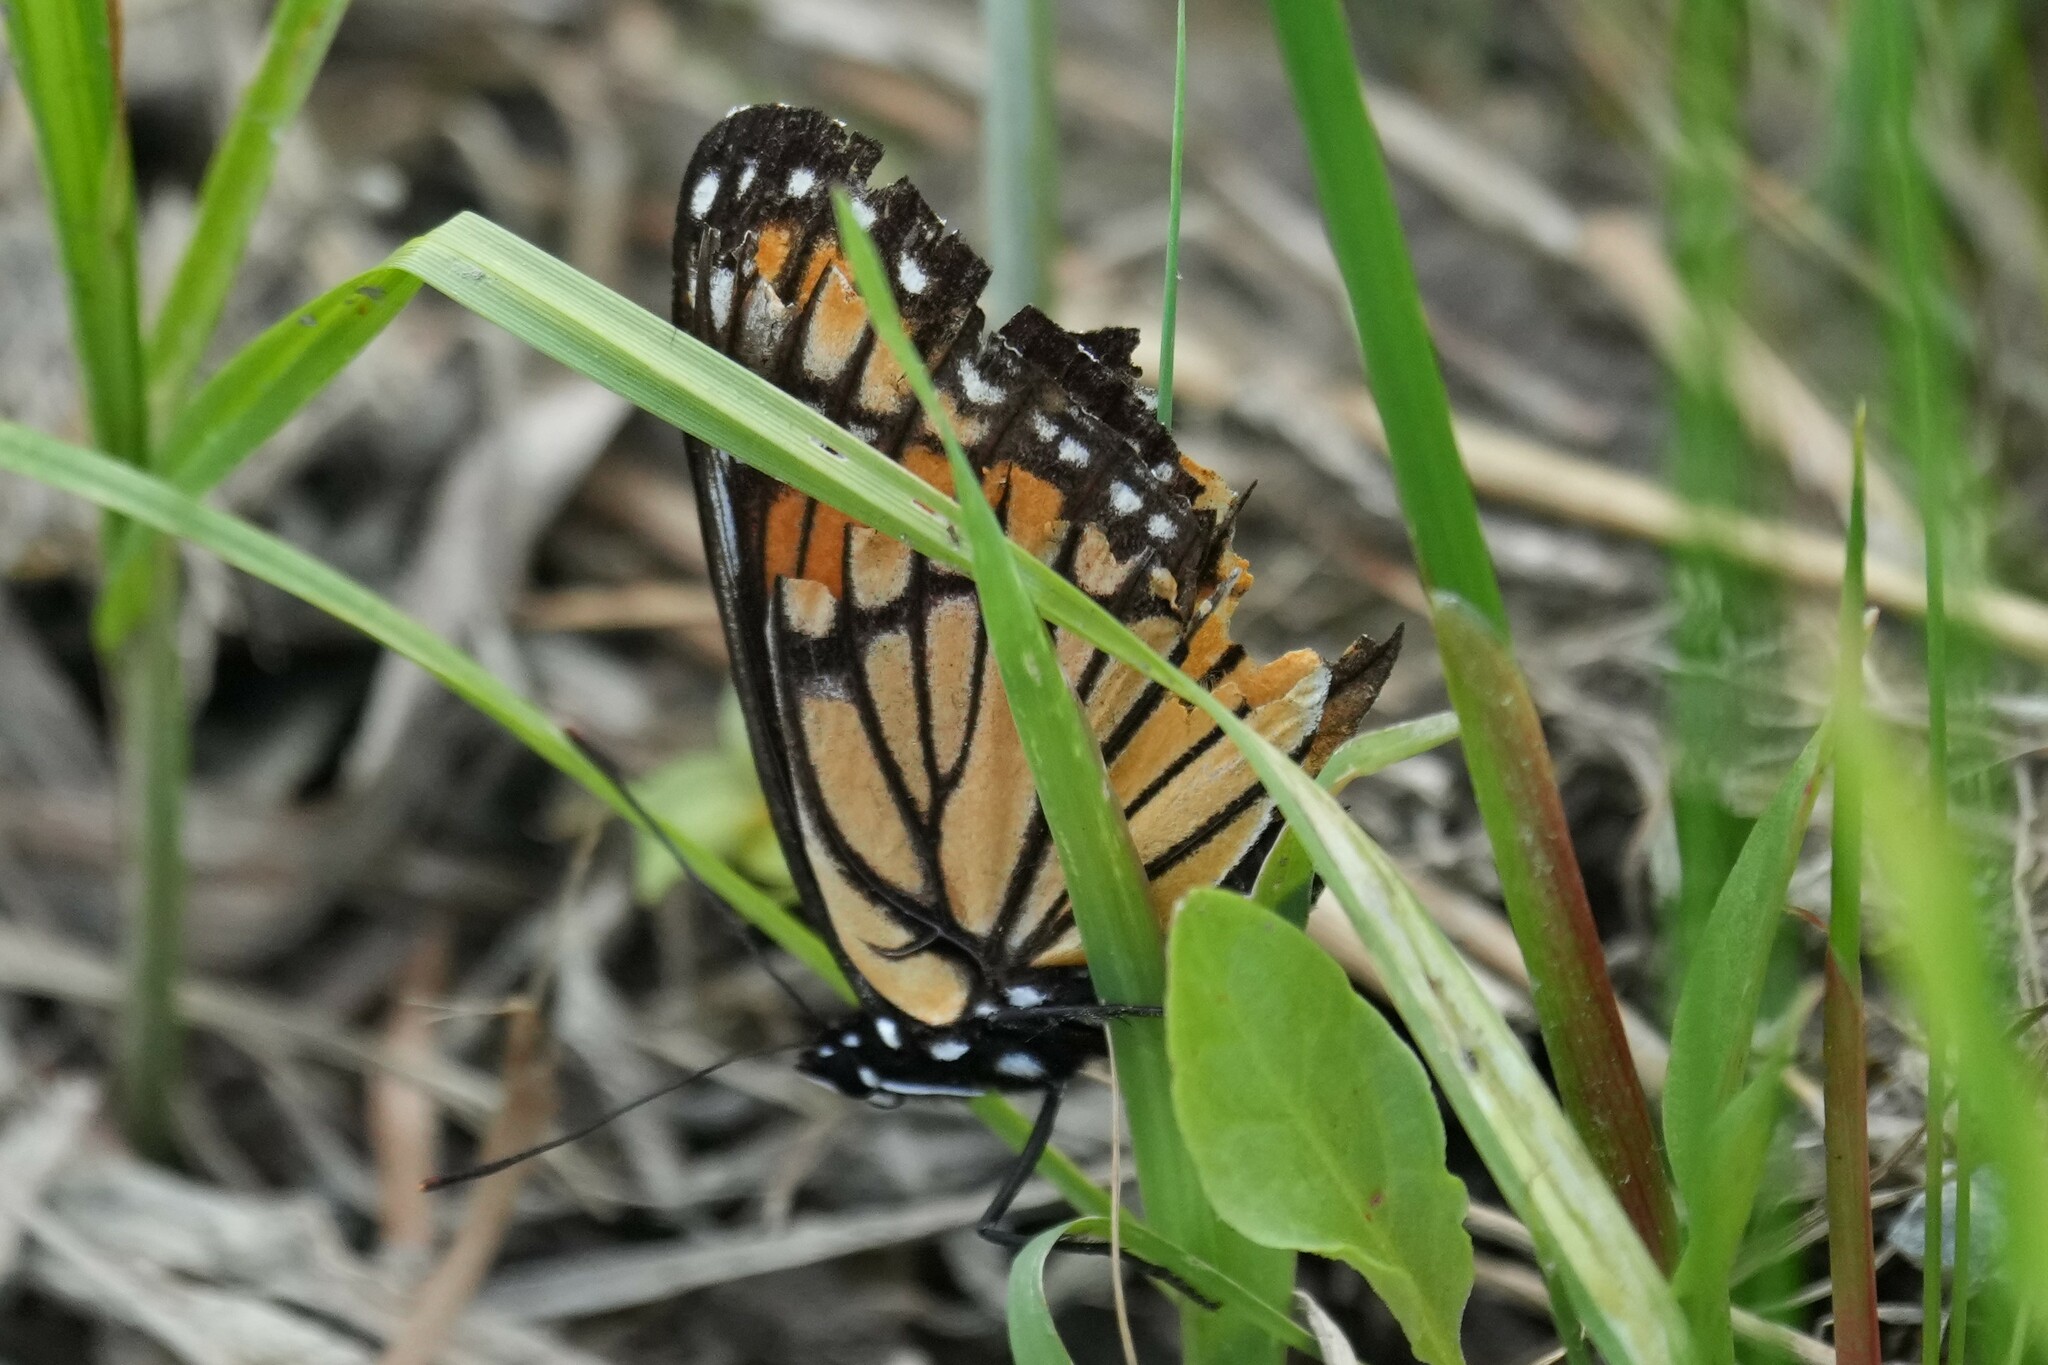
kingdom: Animalia
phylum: Arthropoda
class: Insecta
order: Lepidoptera
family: Nymphalidae
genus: Limenitis
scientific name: Limenitis archippus
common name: Viceroy
